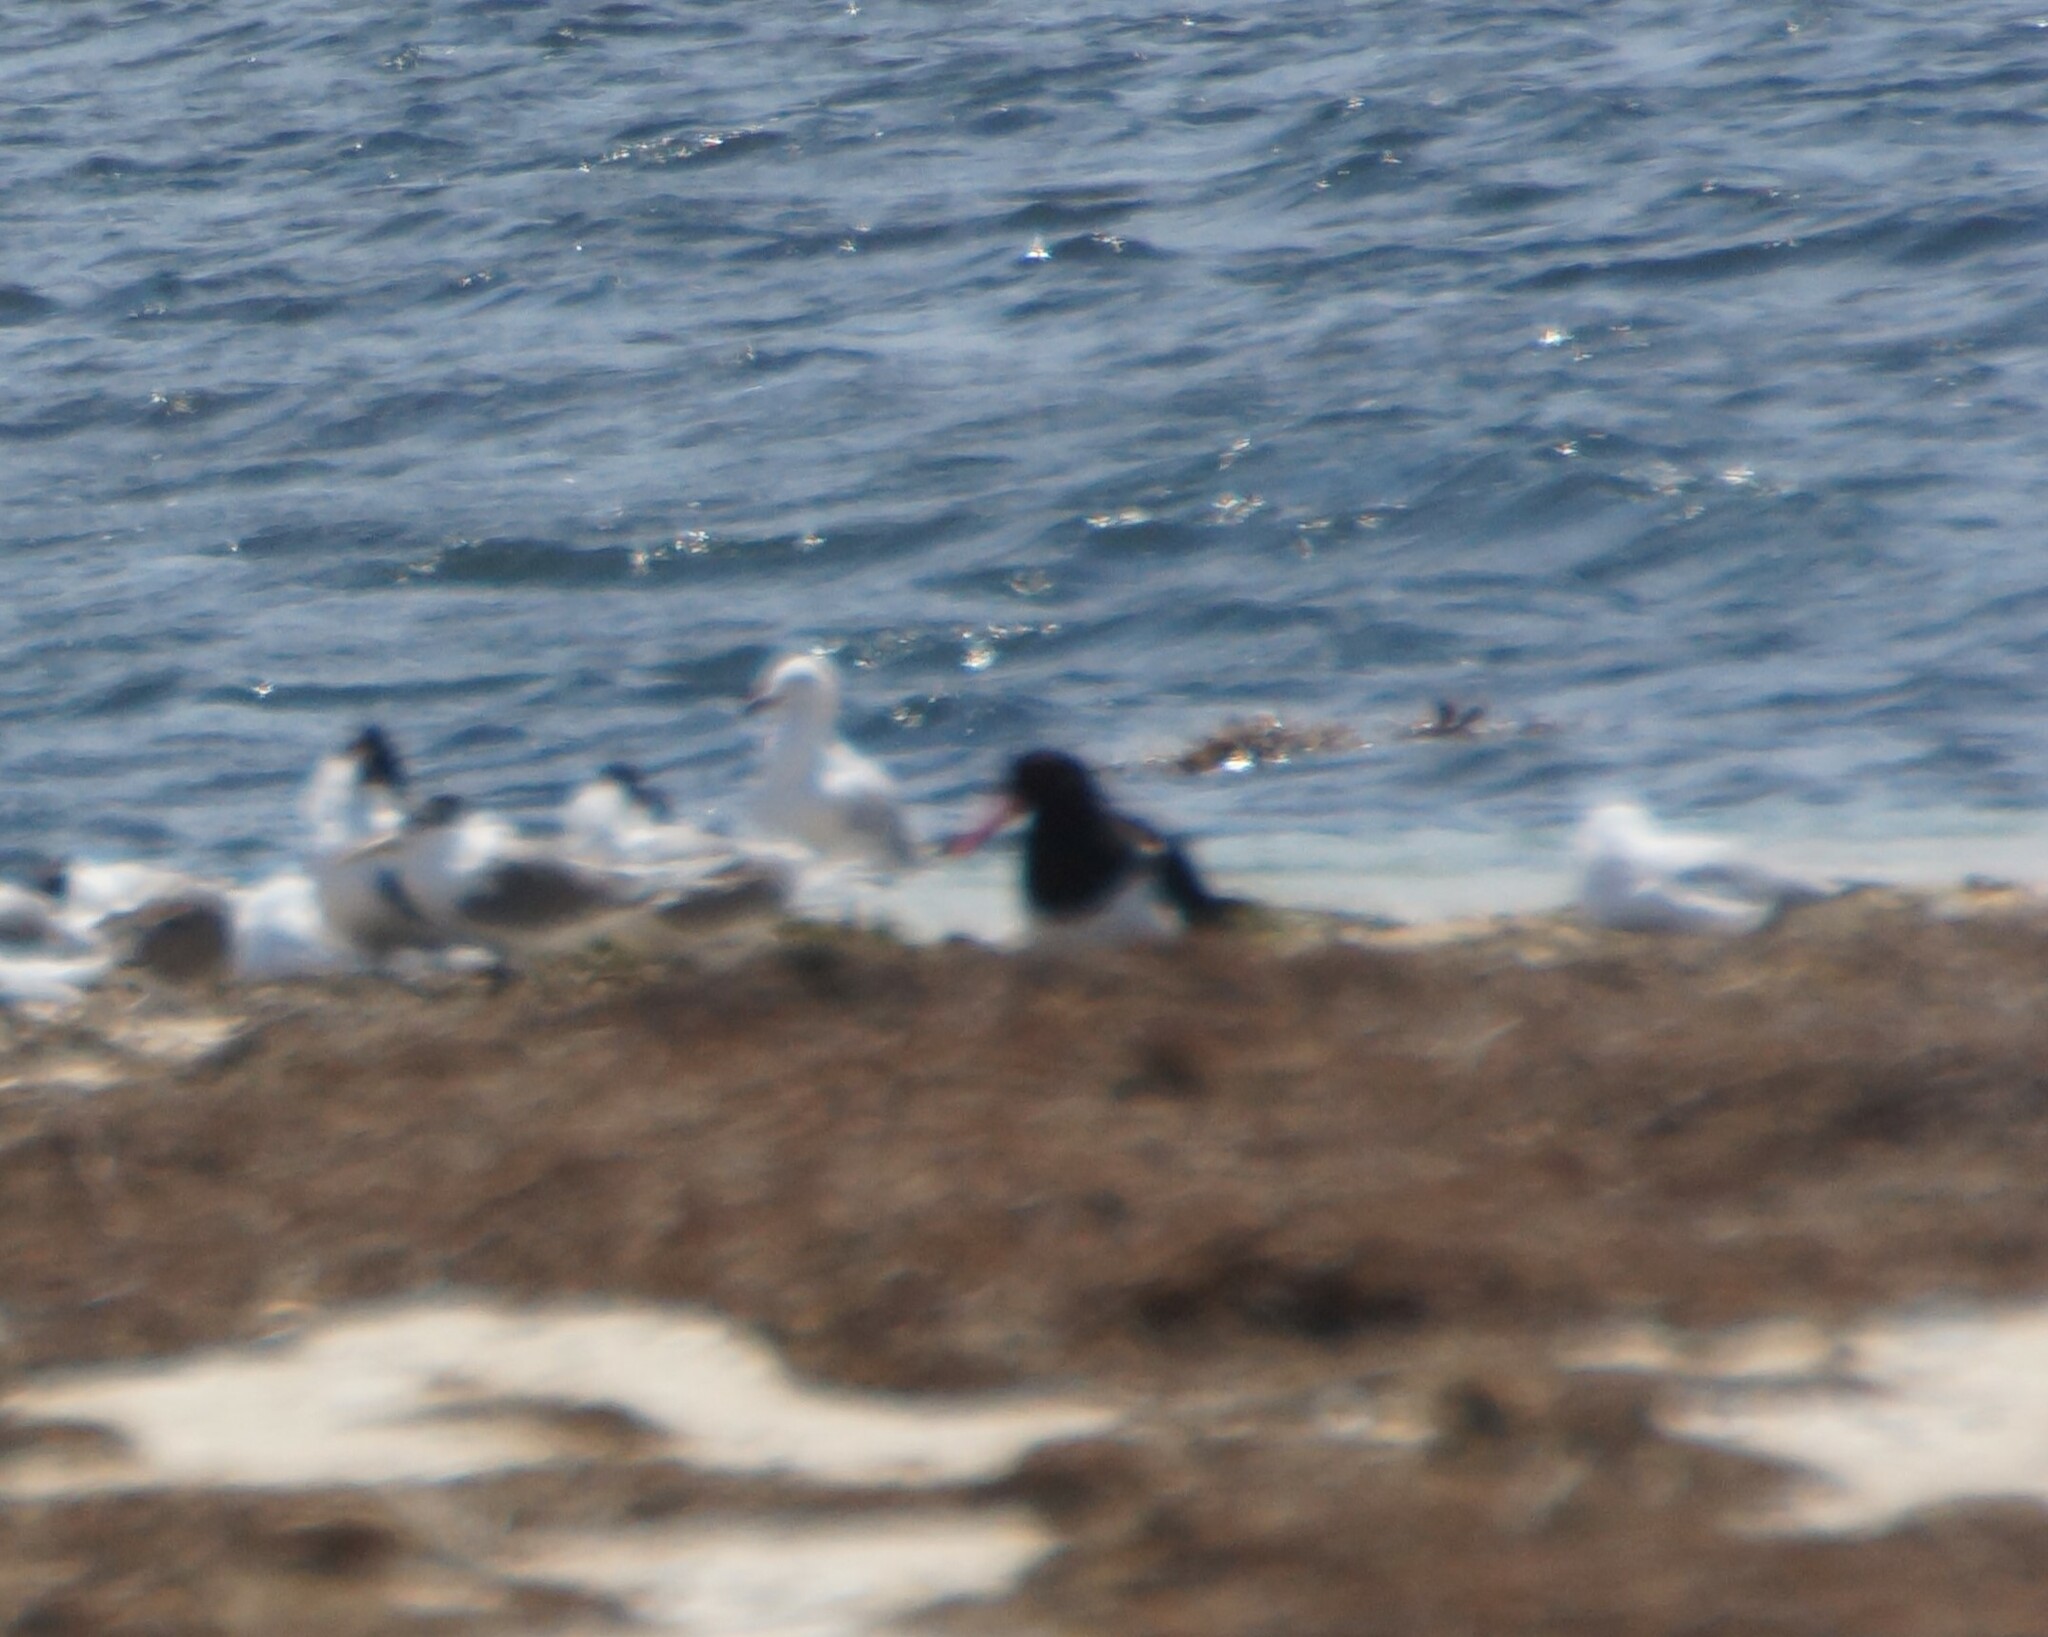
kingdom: Animalia
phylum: Chordata
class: Aves
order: Charadriiformes
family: Haematopodidae
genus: Haematopus
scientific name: Haematopus longirostris
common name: Pied oystercatcher
